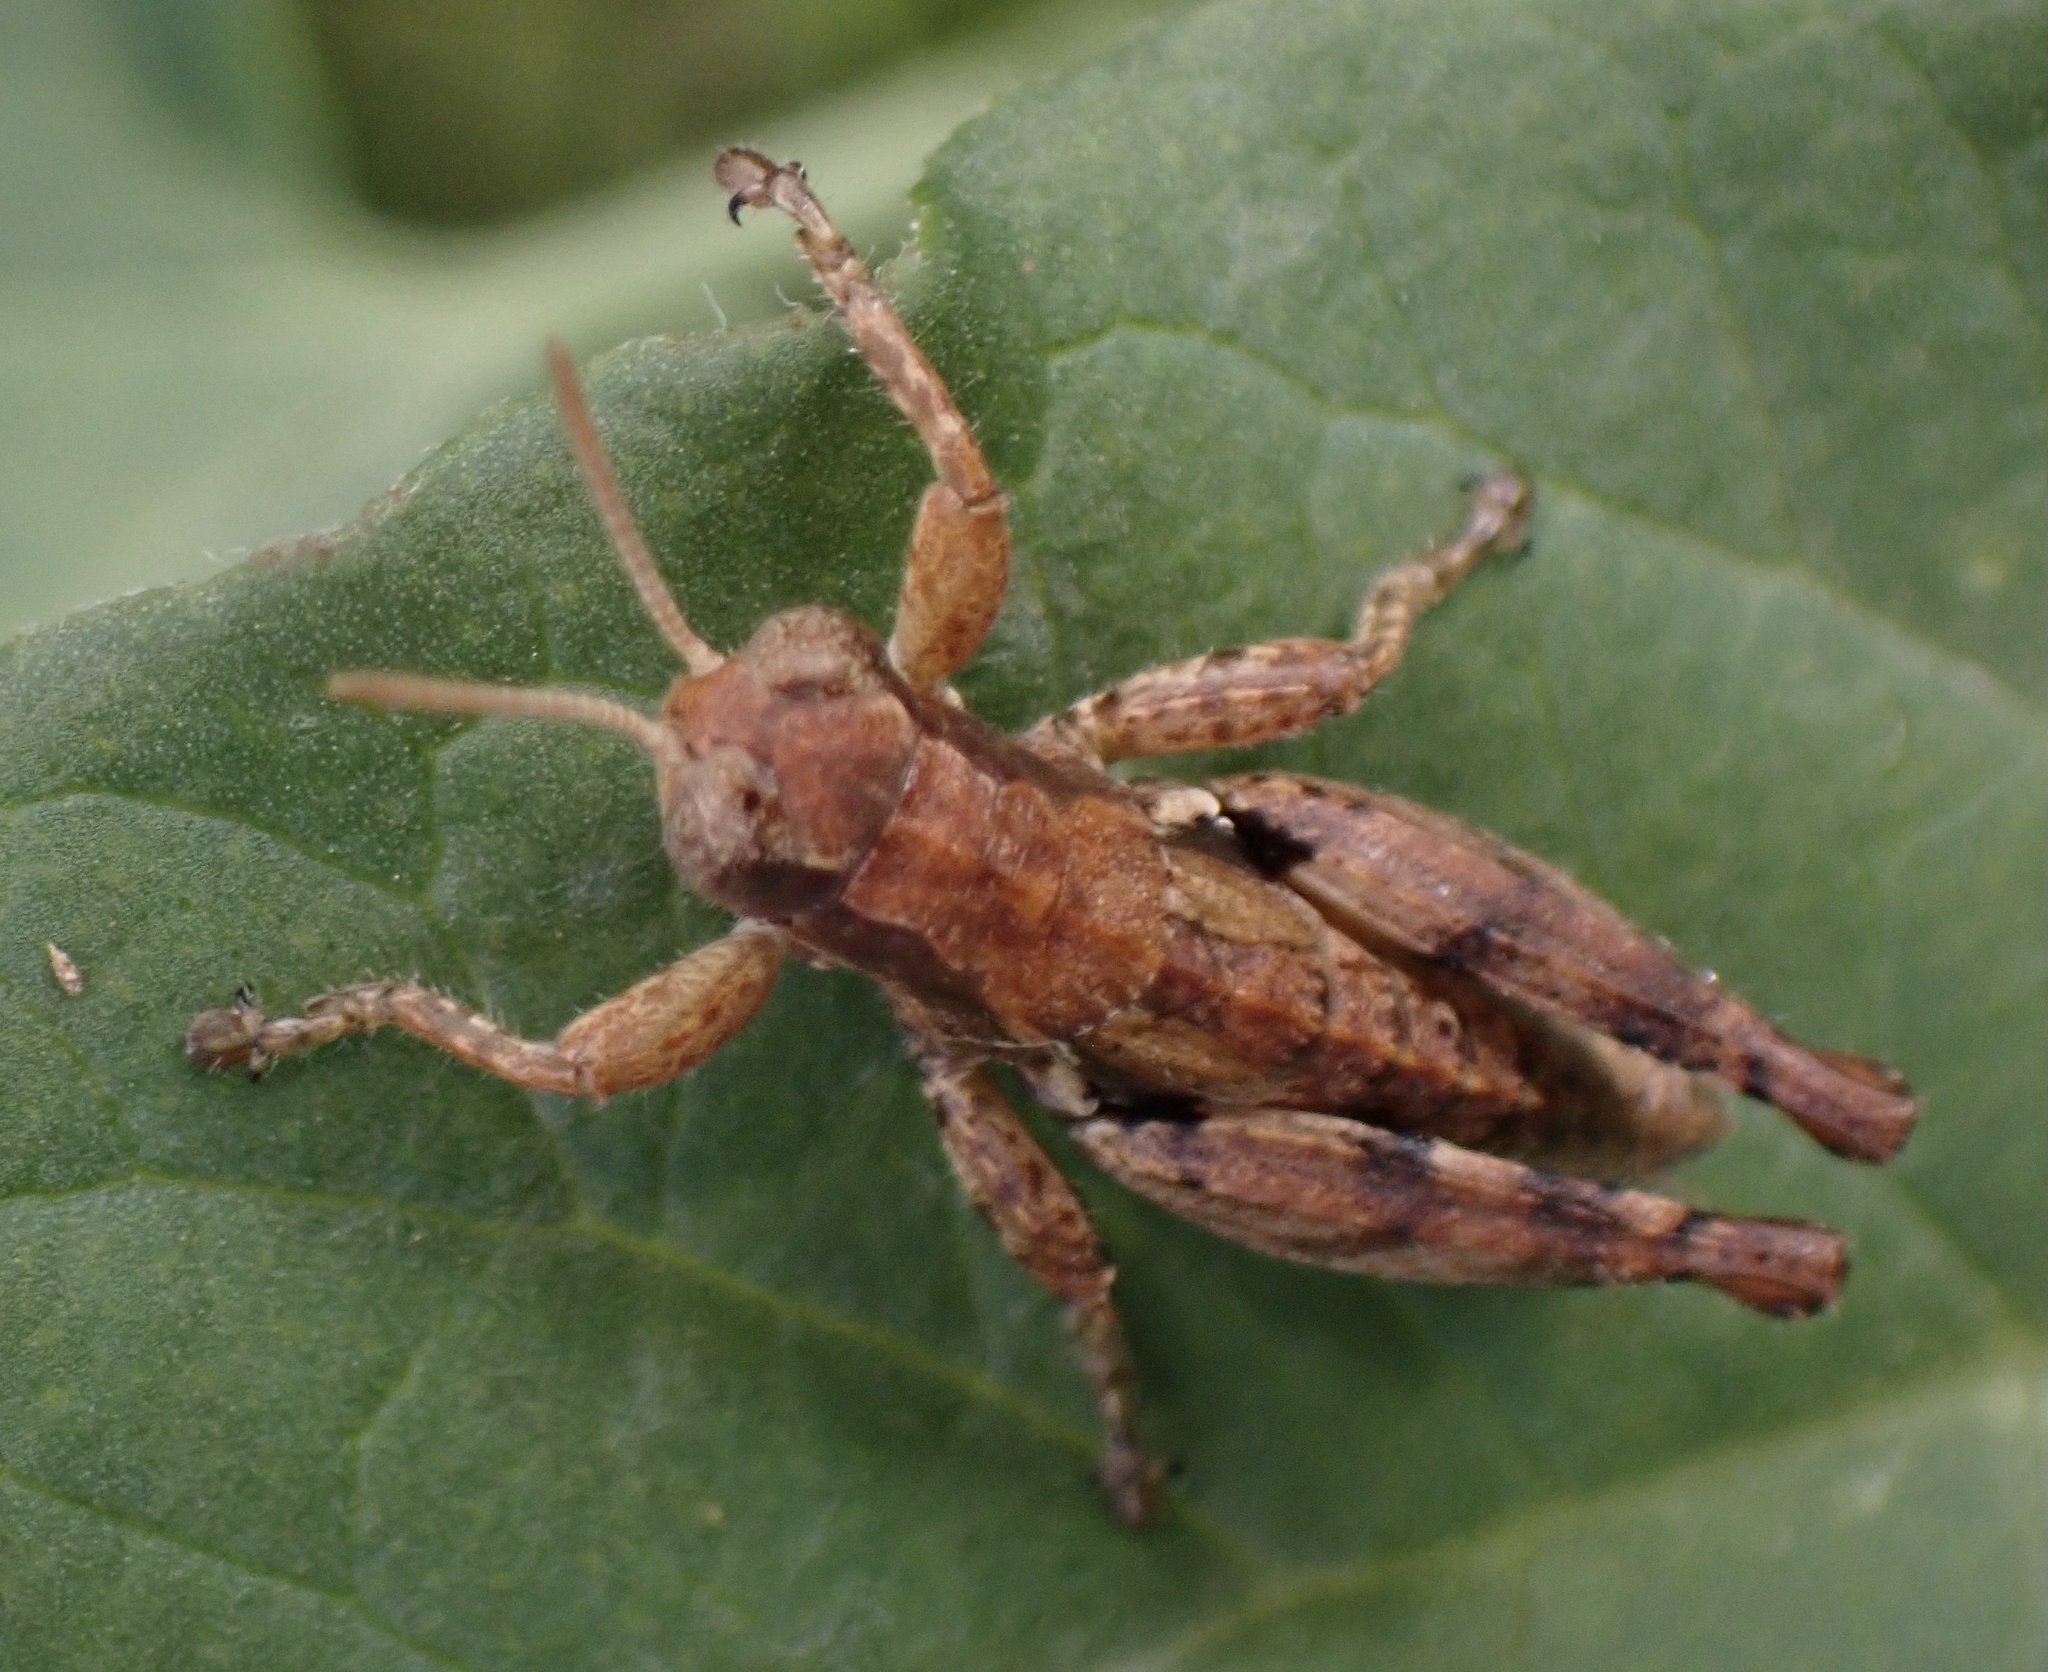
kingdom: Animalia
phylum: Arthropoda
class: Insecta
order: Orthoptera
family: Acrididae
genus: Pezotettix
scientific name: Pezotettix giornae
